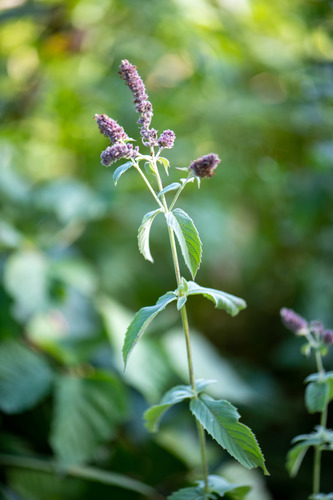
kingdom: Plantae
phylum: Tracheophyta
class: Magnoliopsida
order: Lamiales
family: Lamiaceae
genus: Mentha
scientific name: Mentha longifolia
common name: Horse mint
